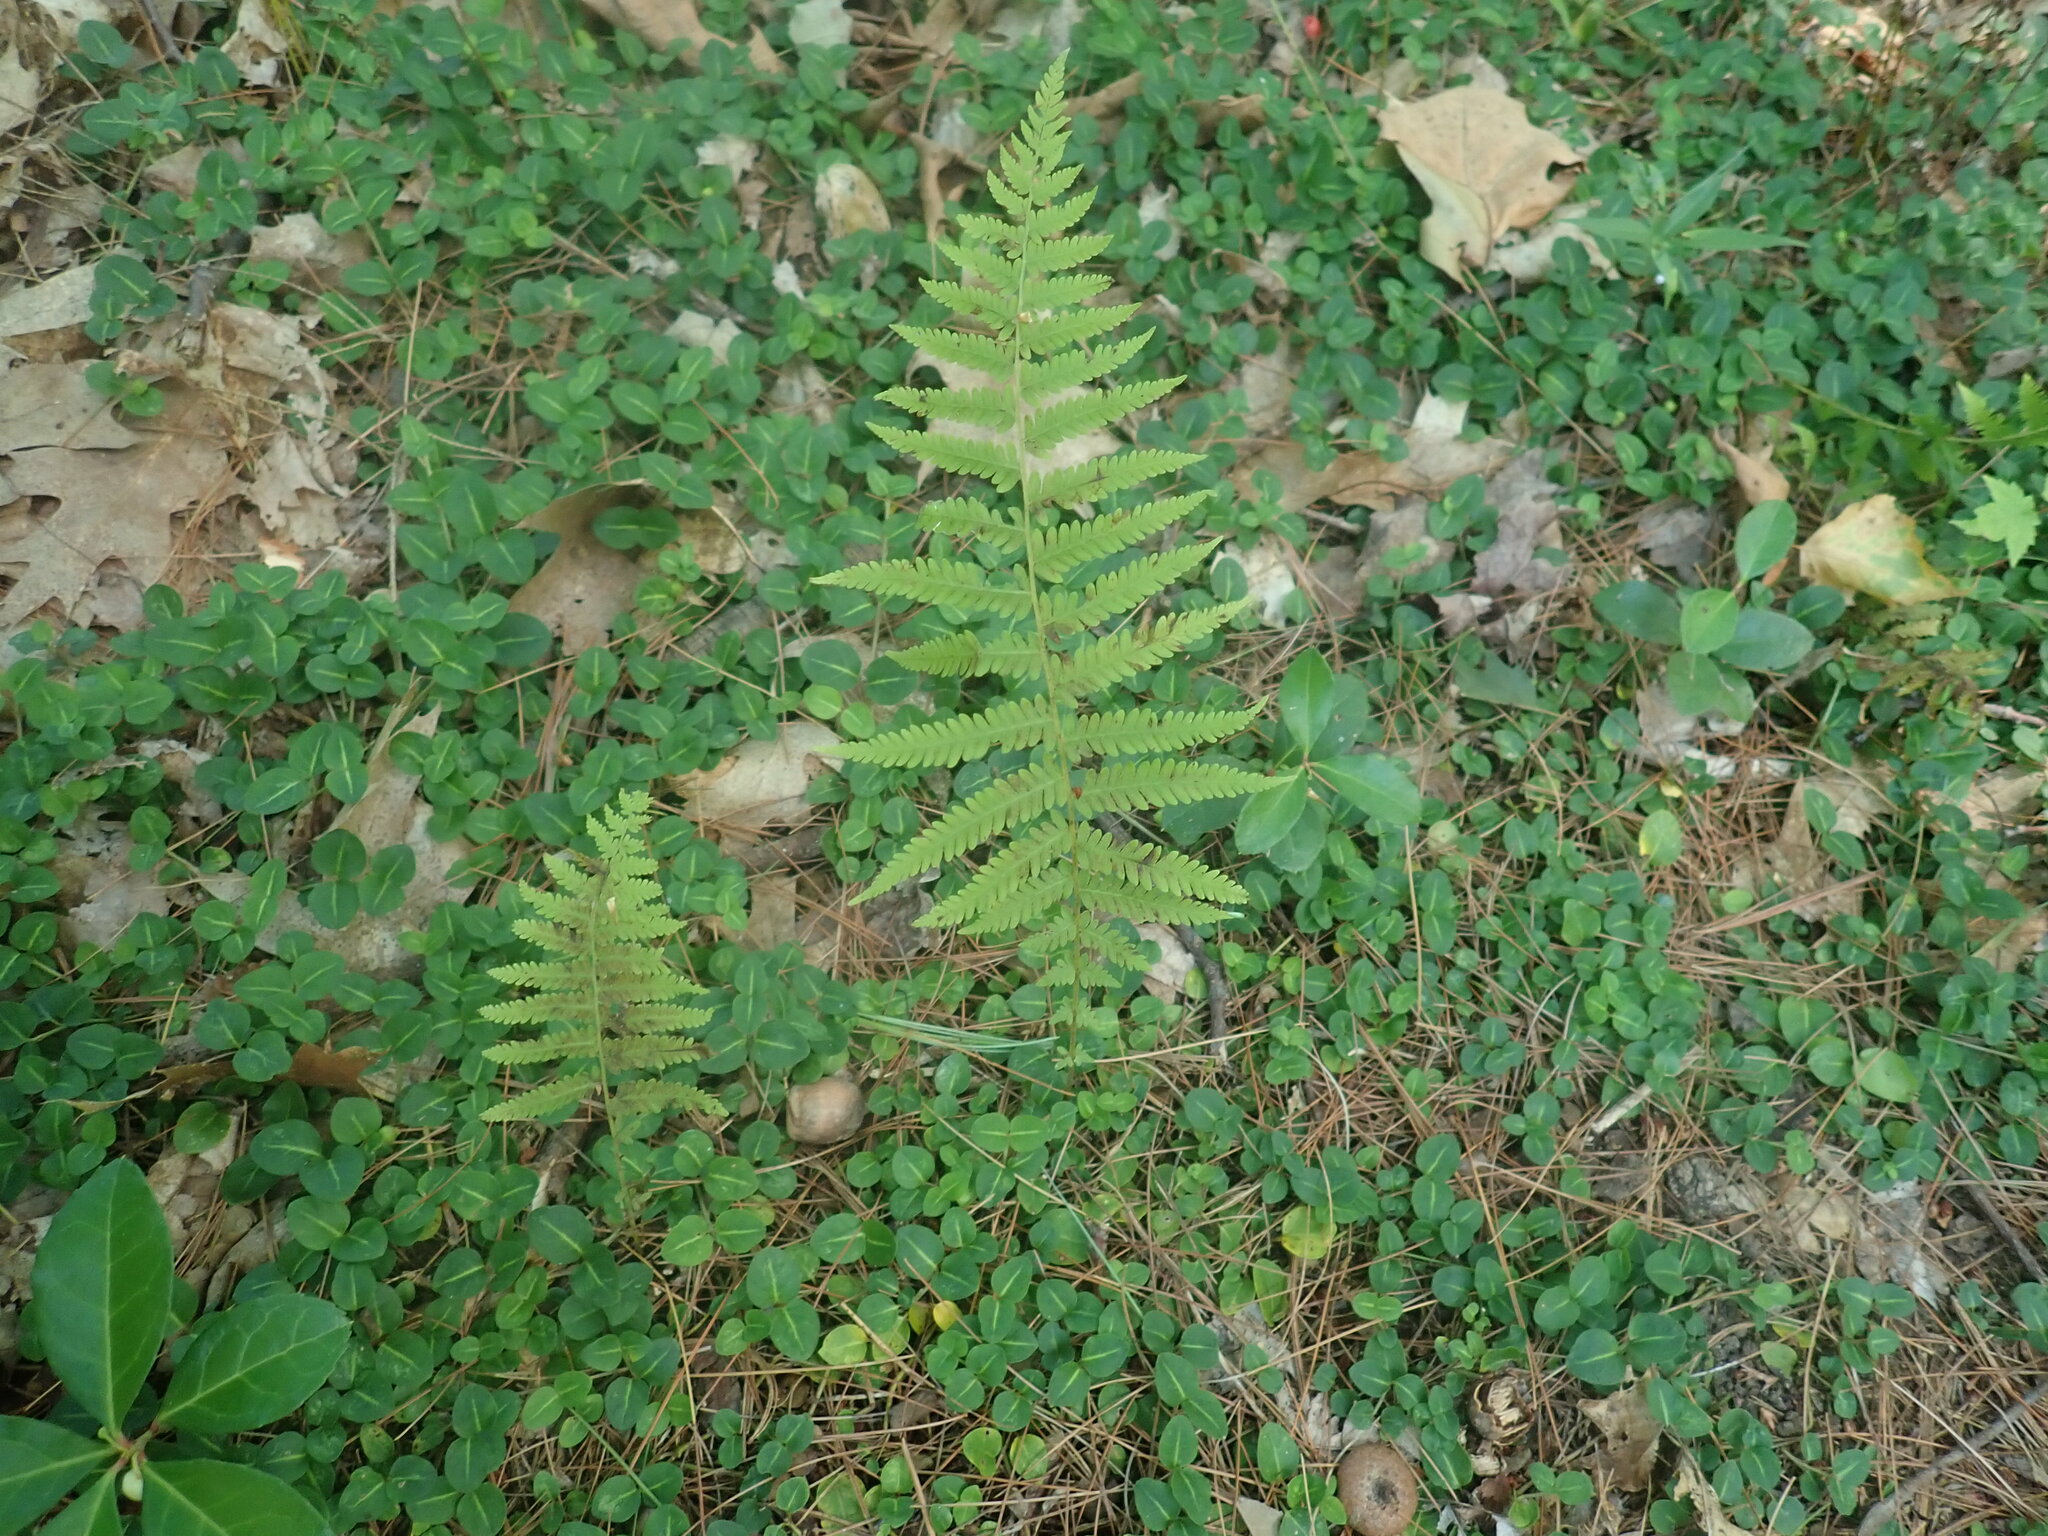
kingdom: Plantae
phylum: Tracheophyta
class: Polypodiopsida
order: Polypodiales
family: Thelypteridaceae
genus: Amauropelta
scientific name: Amauropelta noveboracensis
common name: New york fern
